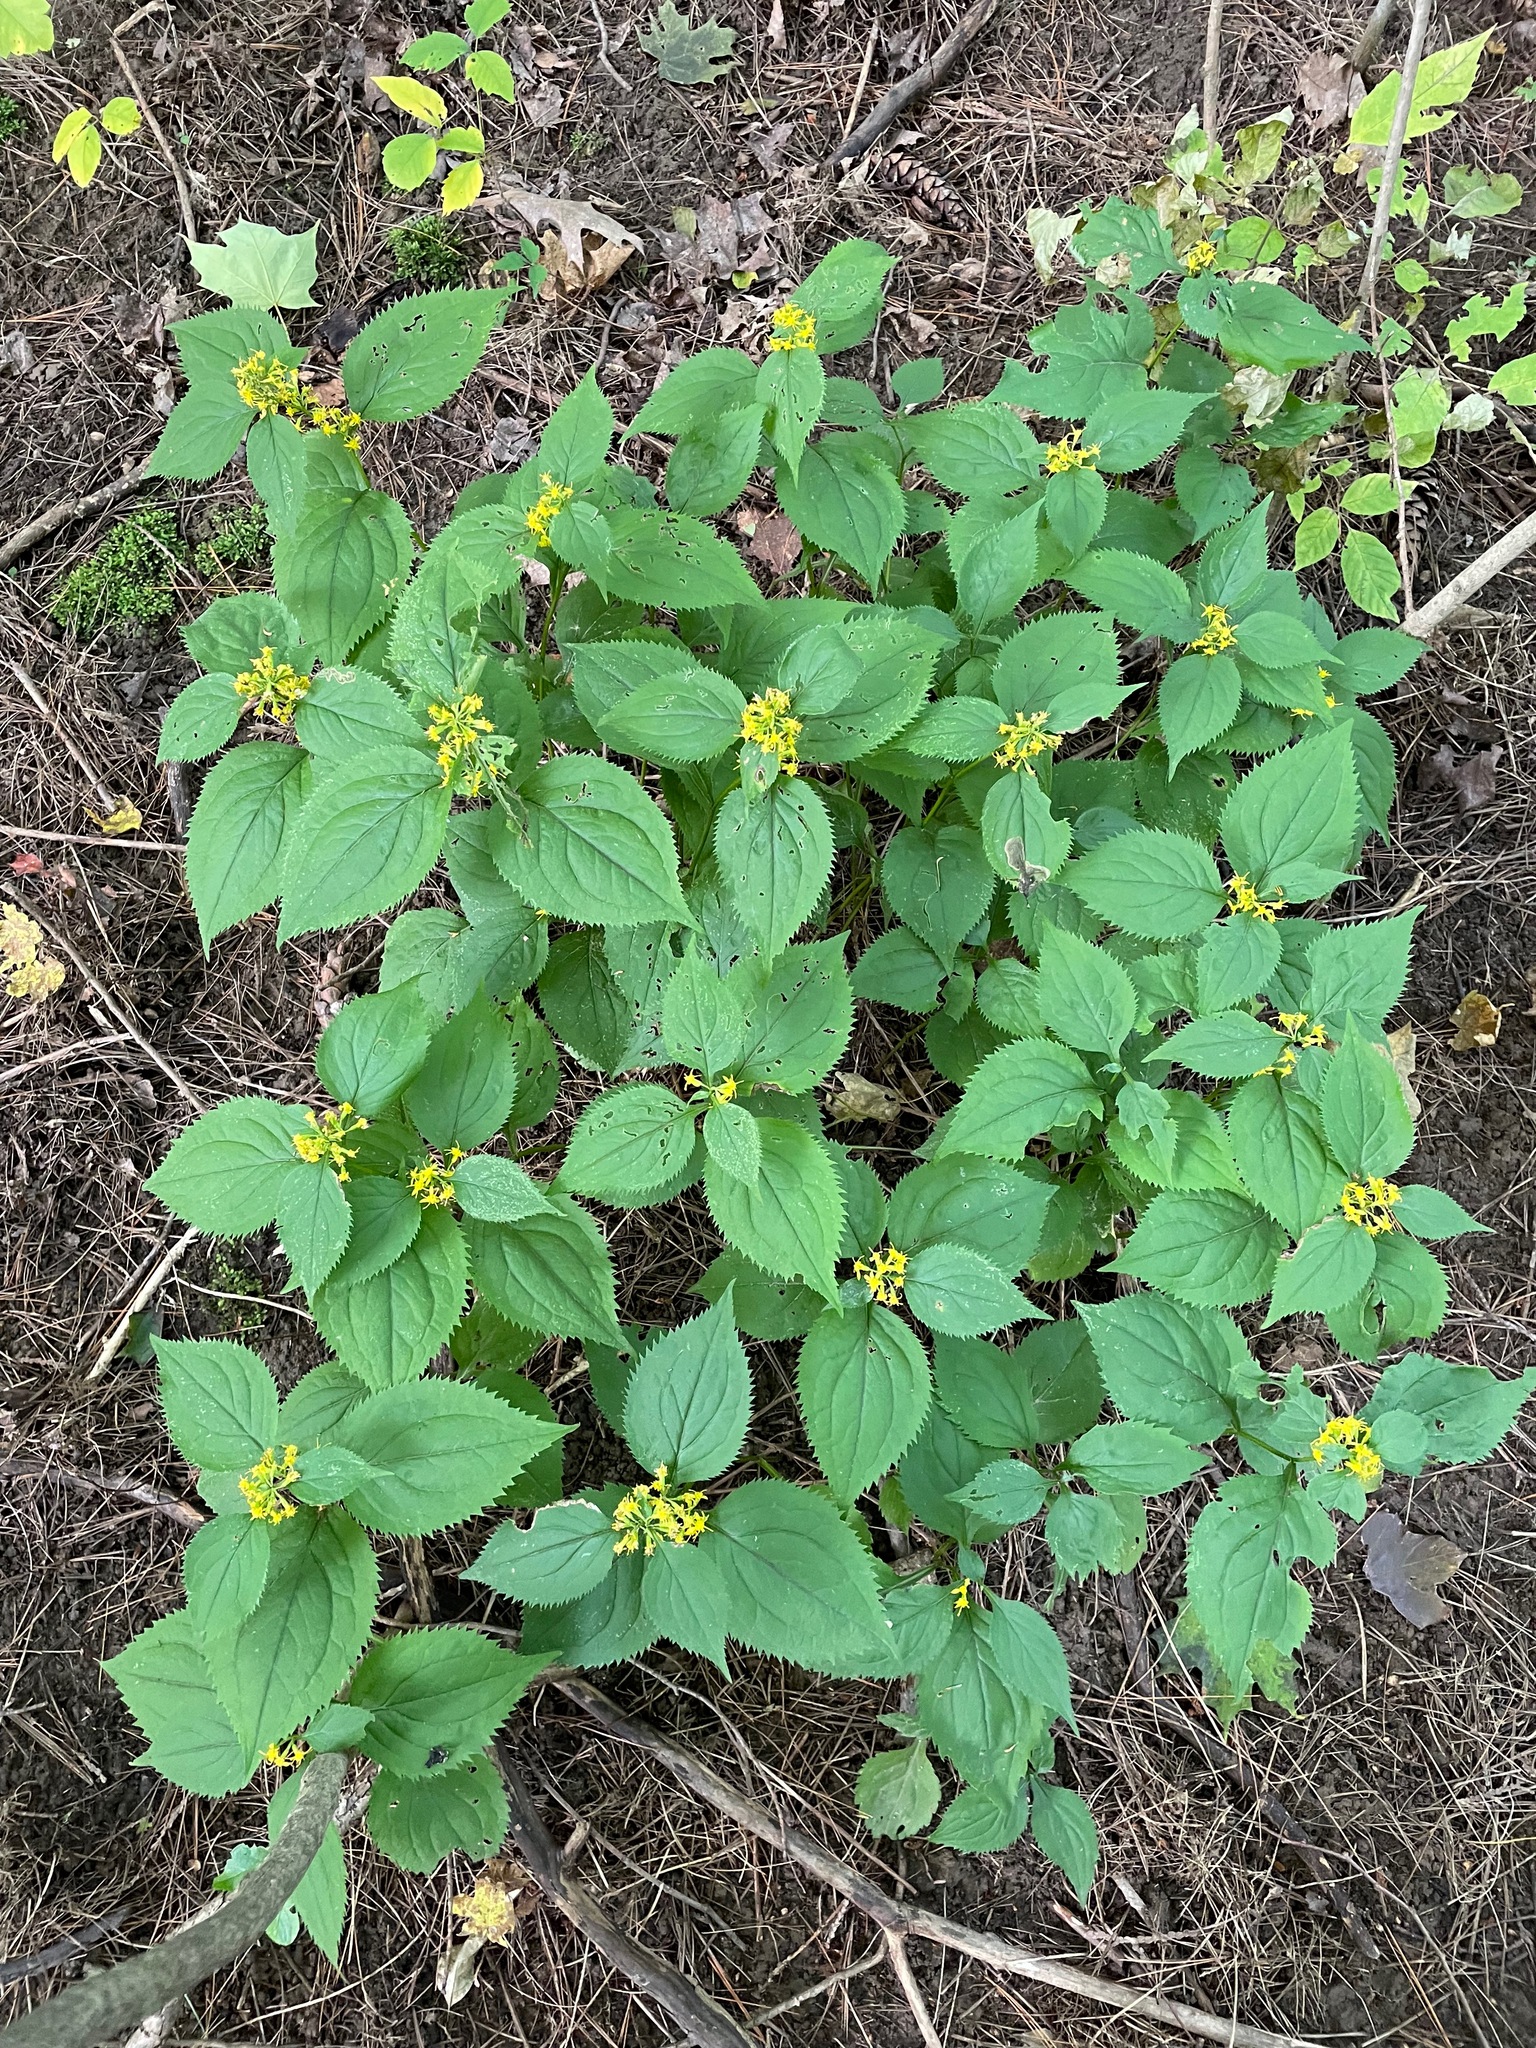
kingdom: Plantae
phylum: Tracheophyta
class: Magnoliopsida
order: Asterales
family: Asteraceae
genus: Solidago
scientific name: Solidago flexicaulis
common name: Zig-zag goldenrod
